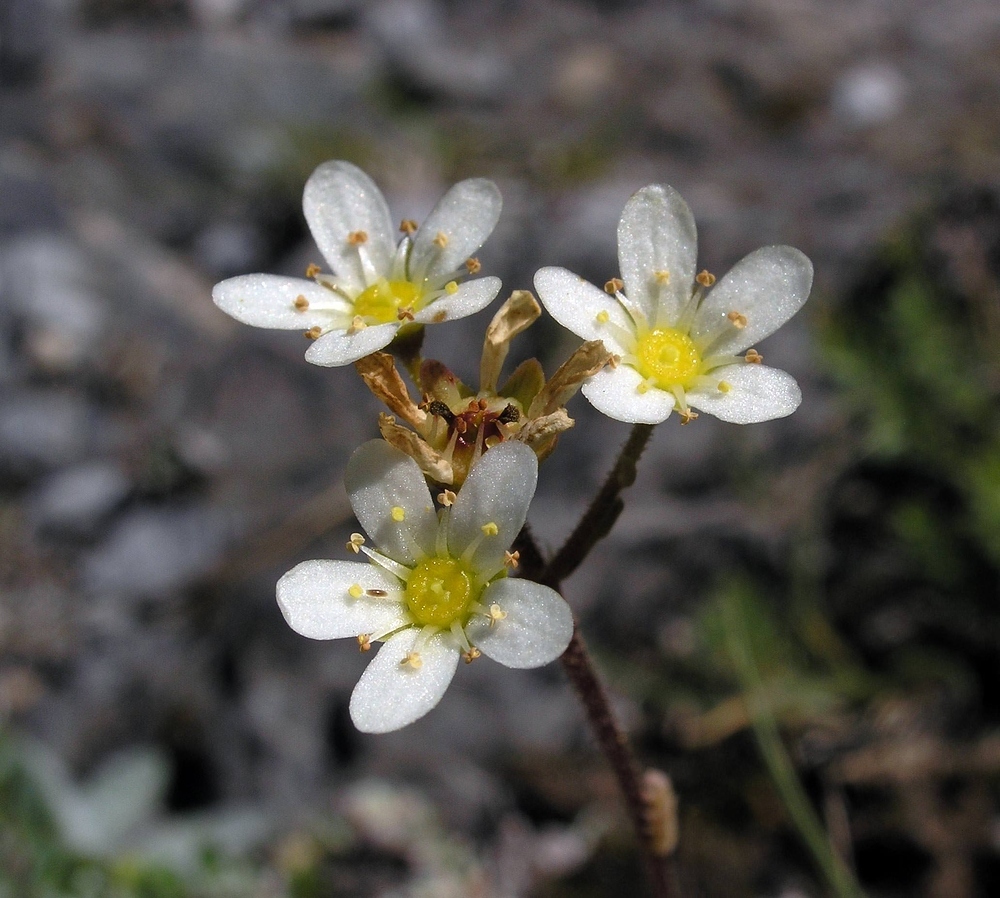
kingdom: Plantae
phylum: Tracheophyta
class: Magnoliopsida
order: Saxifragales
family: Saxifragaceae
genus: Saxifraga
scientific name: Saxifraga paniculata
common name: Livelong saxifrage
